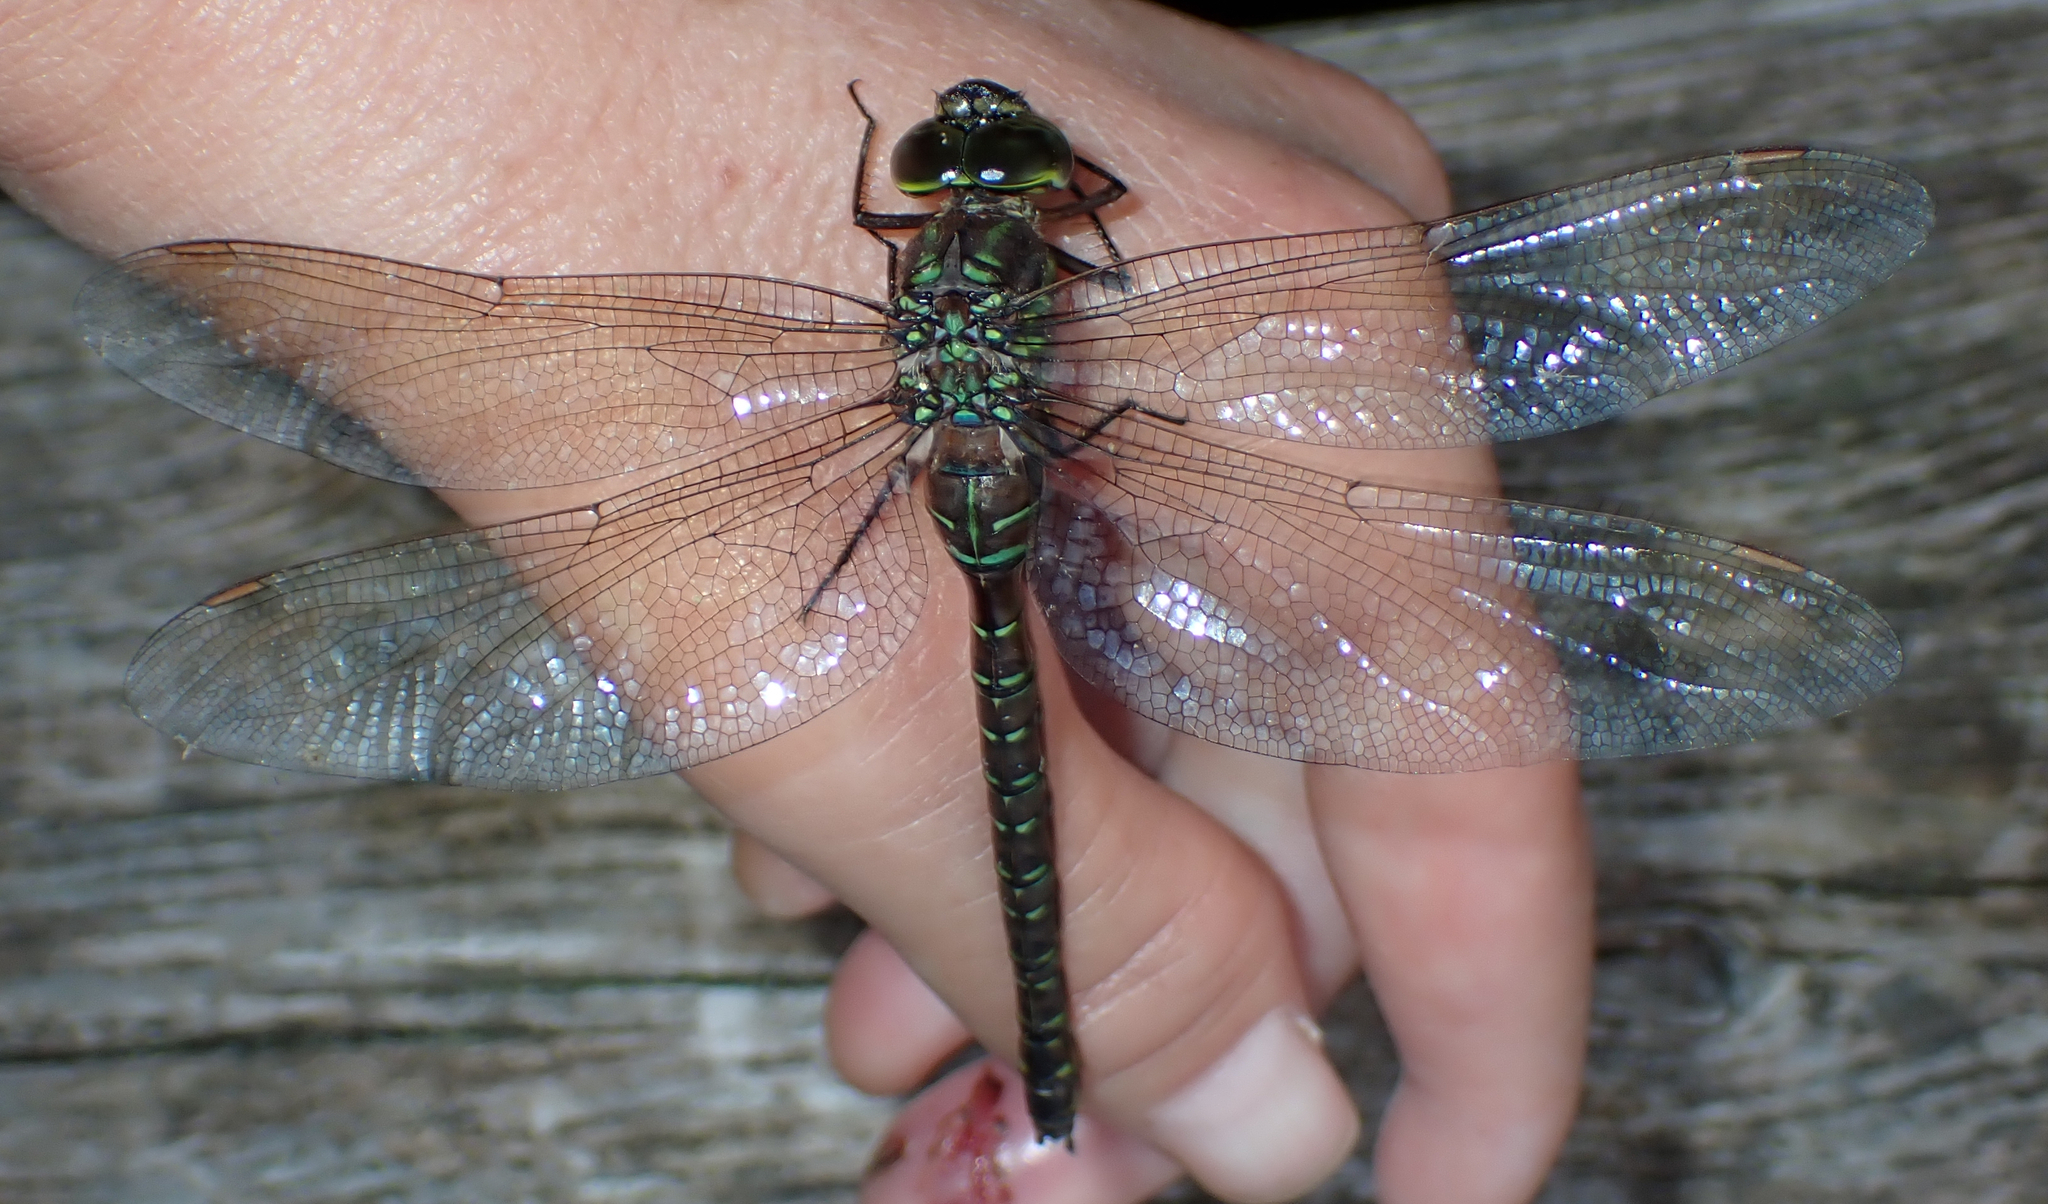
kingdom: Animalia
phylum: Arthropoda
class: Insecta
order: Odonata
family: Aeshnidae
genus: Aeshna
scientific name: Aeshna umbrosa
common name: Shadow darner
